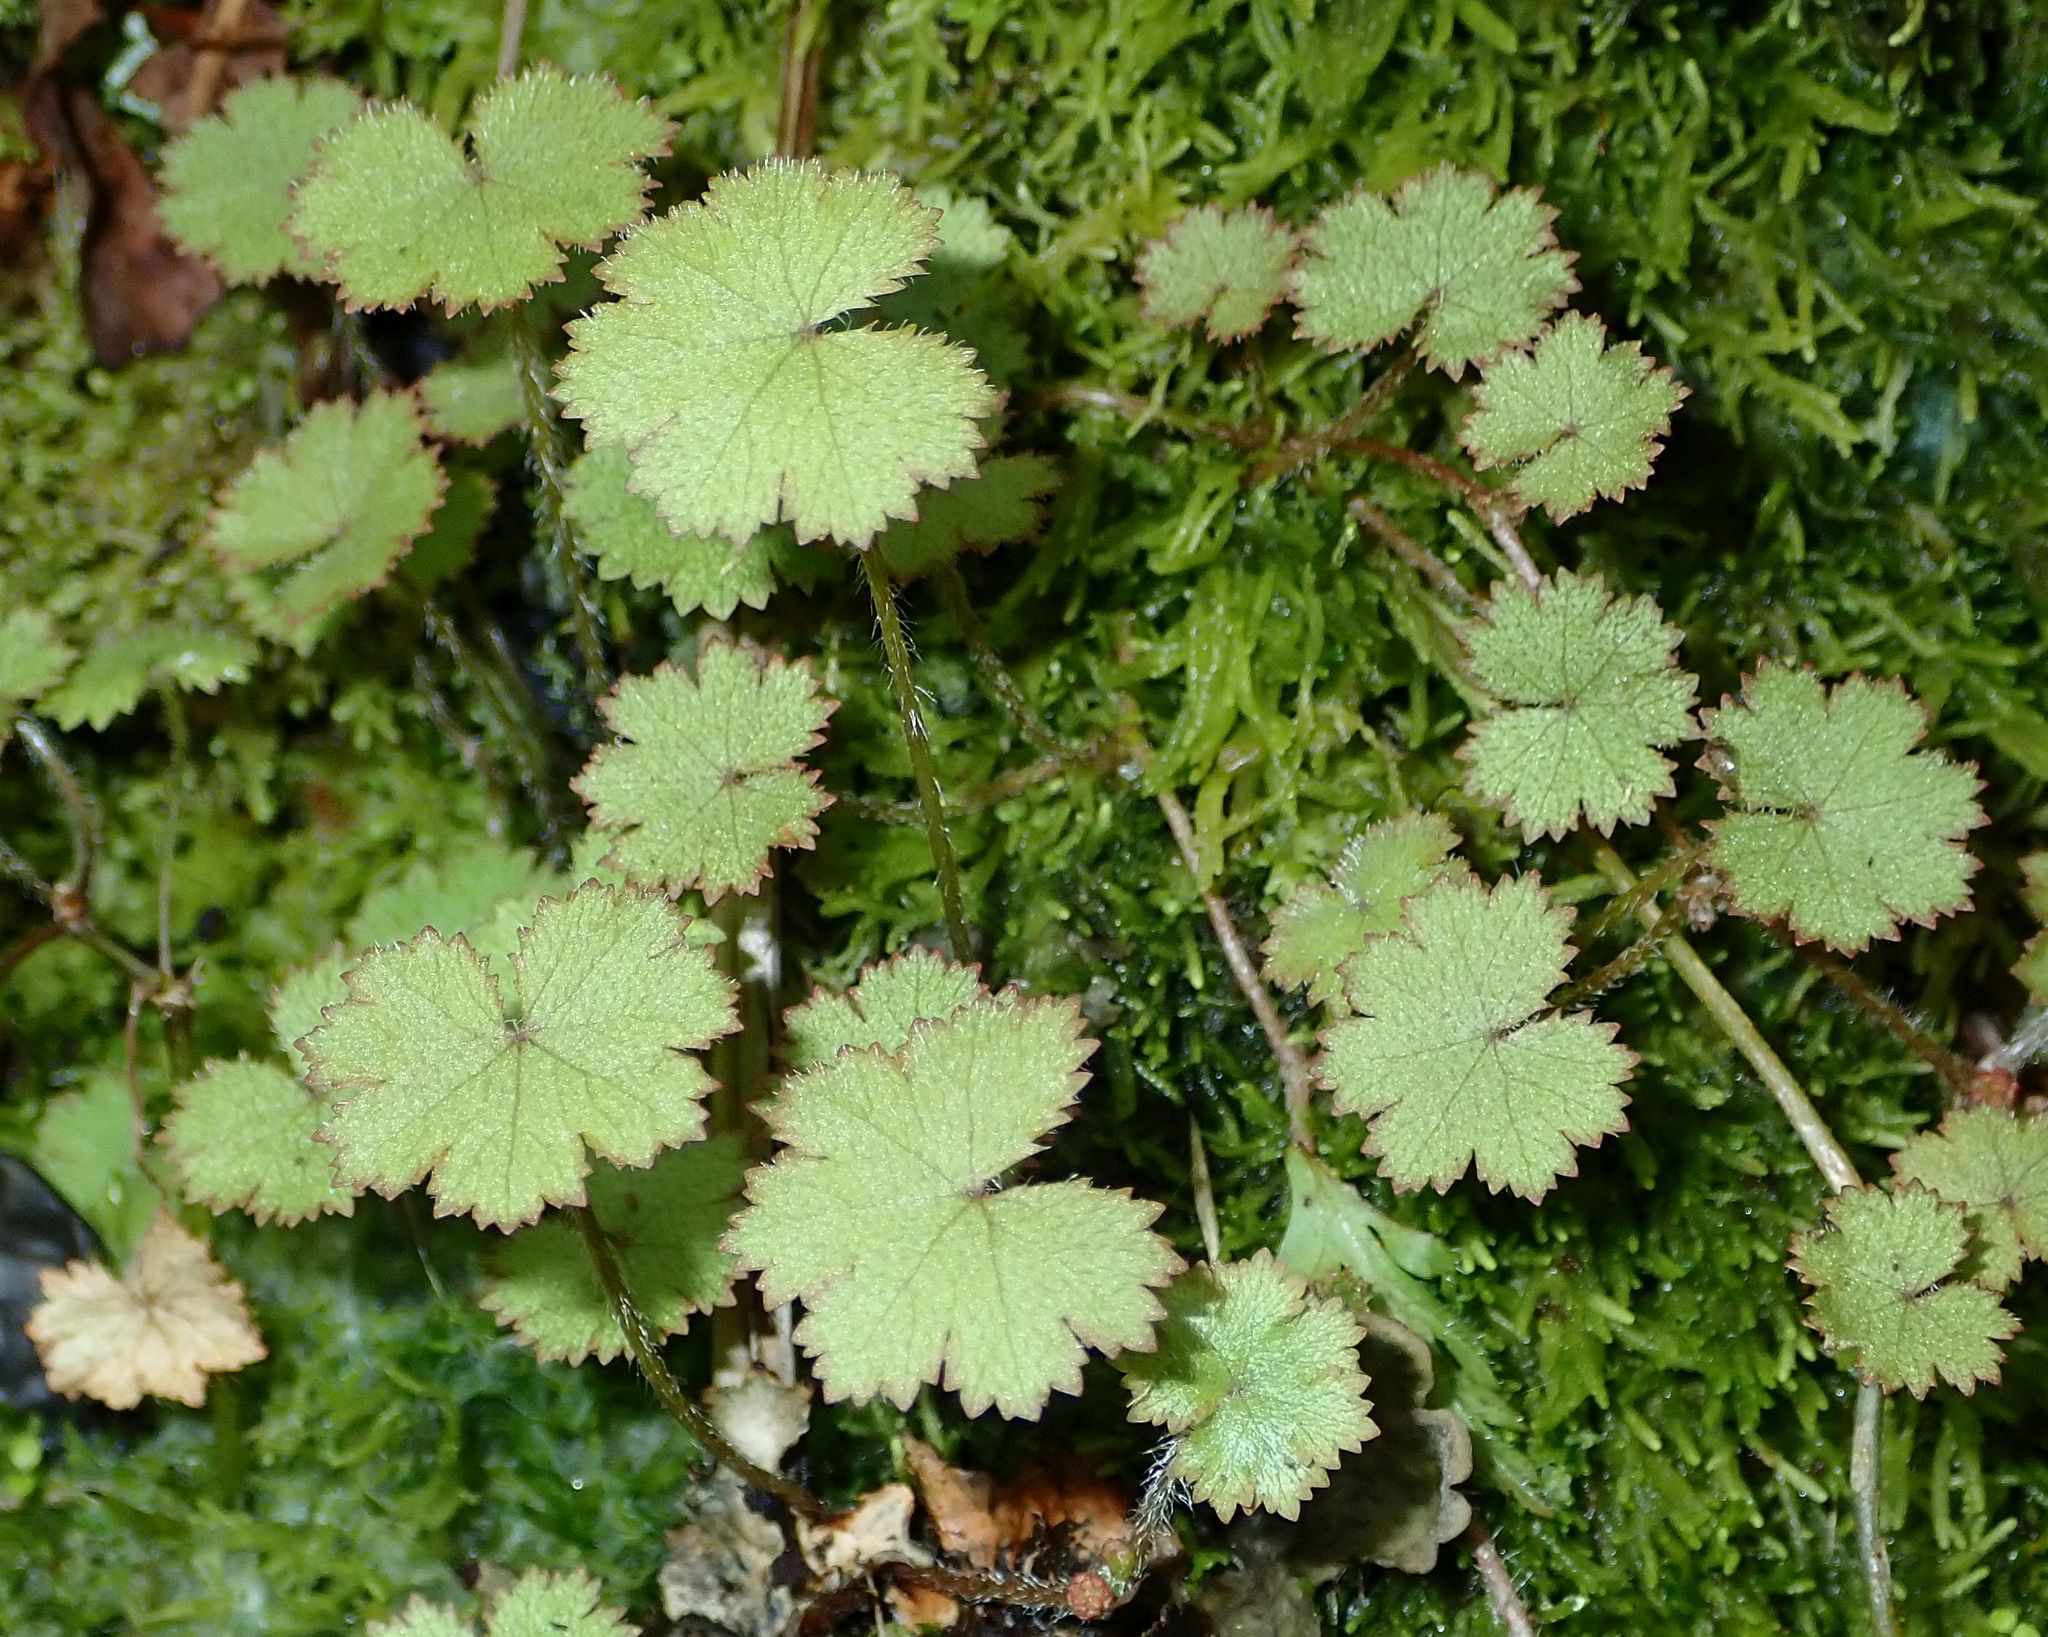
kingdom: Plantae
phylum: Tracheophyta
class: Magnoliopsida
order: Apiales
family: Araliaceae
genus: Hydrocotyle
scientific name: Hydrocotyle moschata
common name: Hairy pennywort
